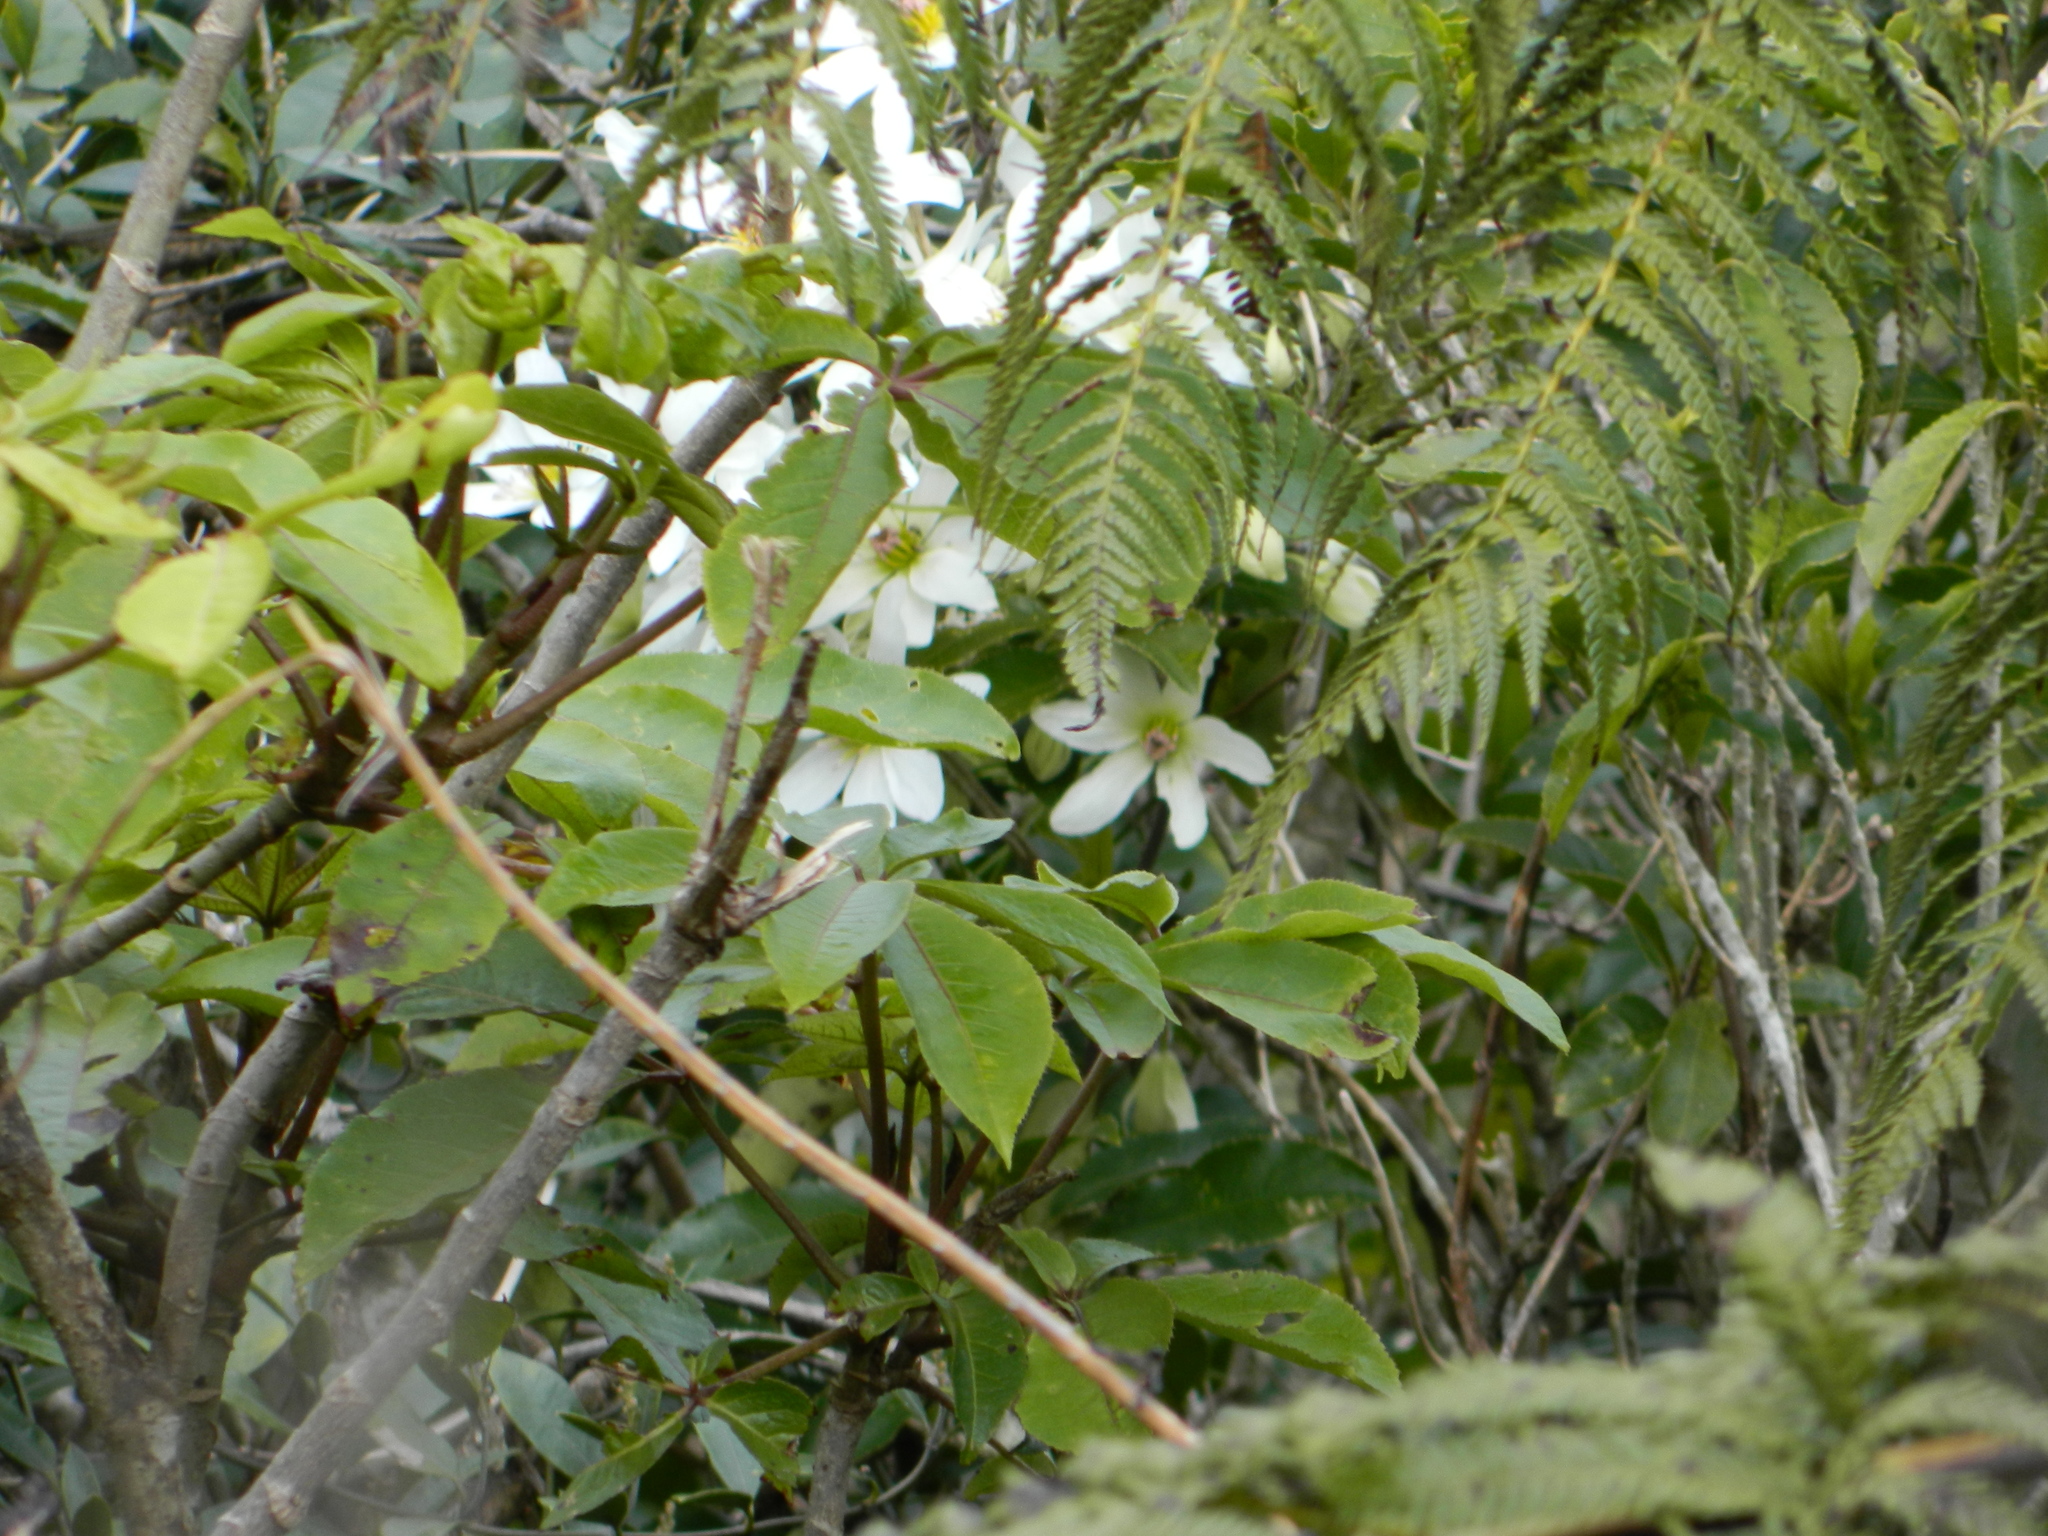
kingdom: Plantae
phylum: Tracheophyta
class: Magnoliopsida
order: Ranunculales
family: Ranunculaceae
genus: Clematis
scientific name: Clematis paniculata
